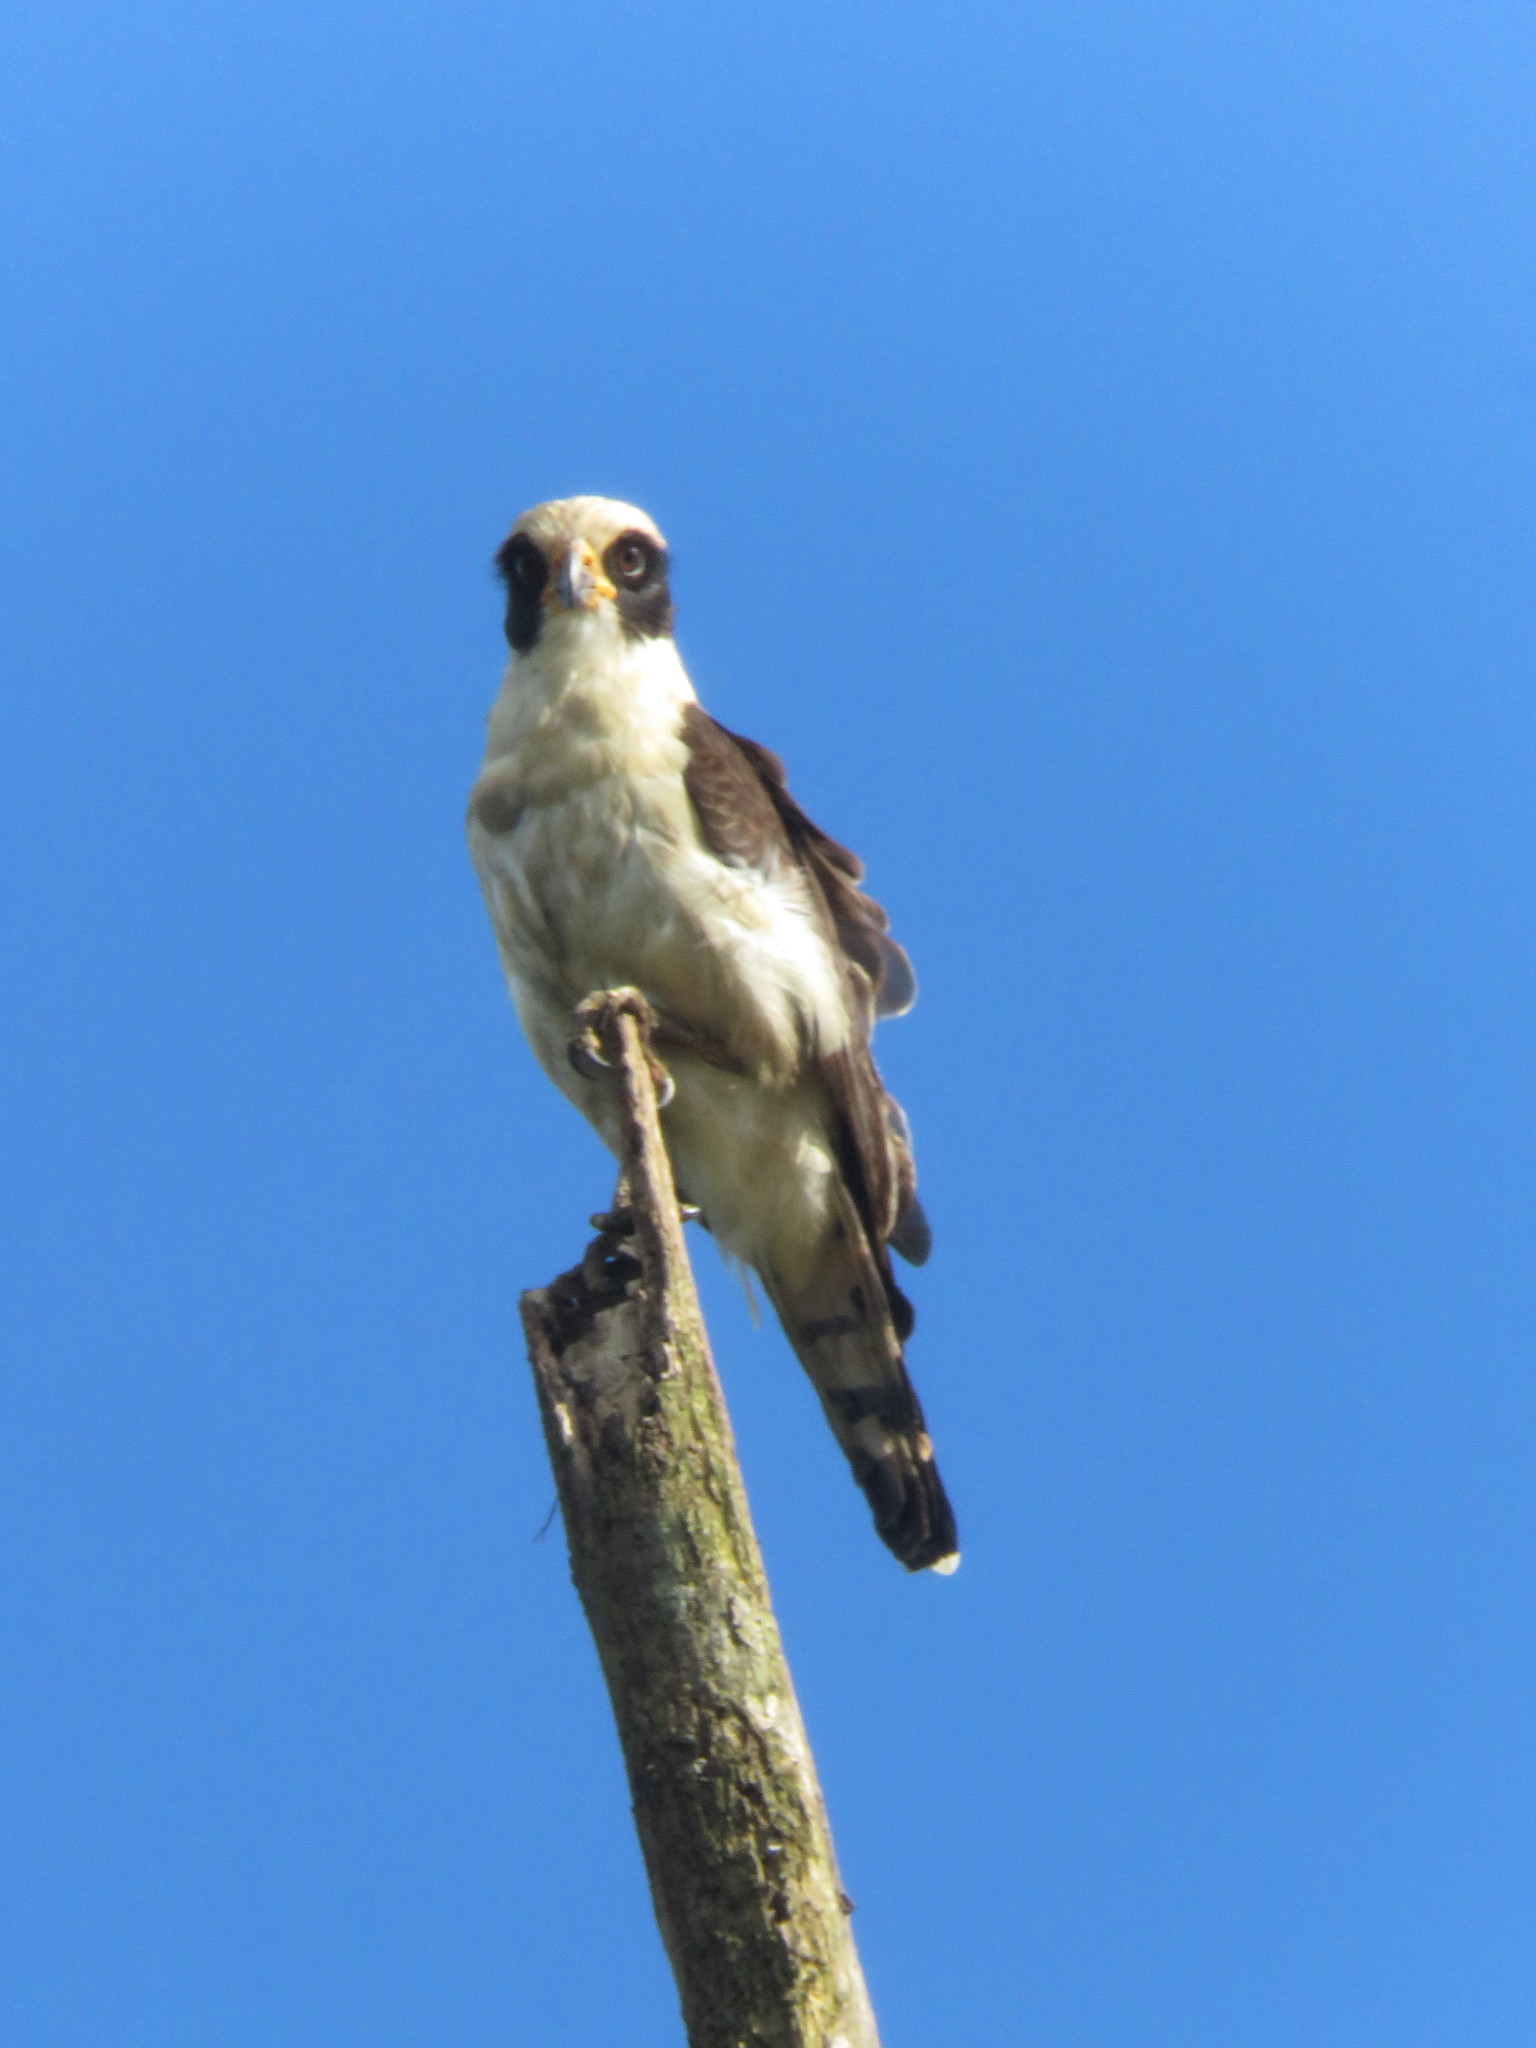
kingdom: Animalia
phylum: Chordata
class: Aves
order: Falconiformes
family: Falconidae
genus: Herpetotheres
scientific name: Herpetotheres cachinnans
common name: Laughing falcon
